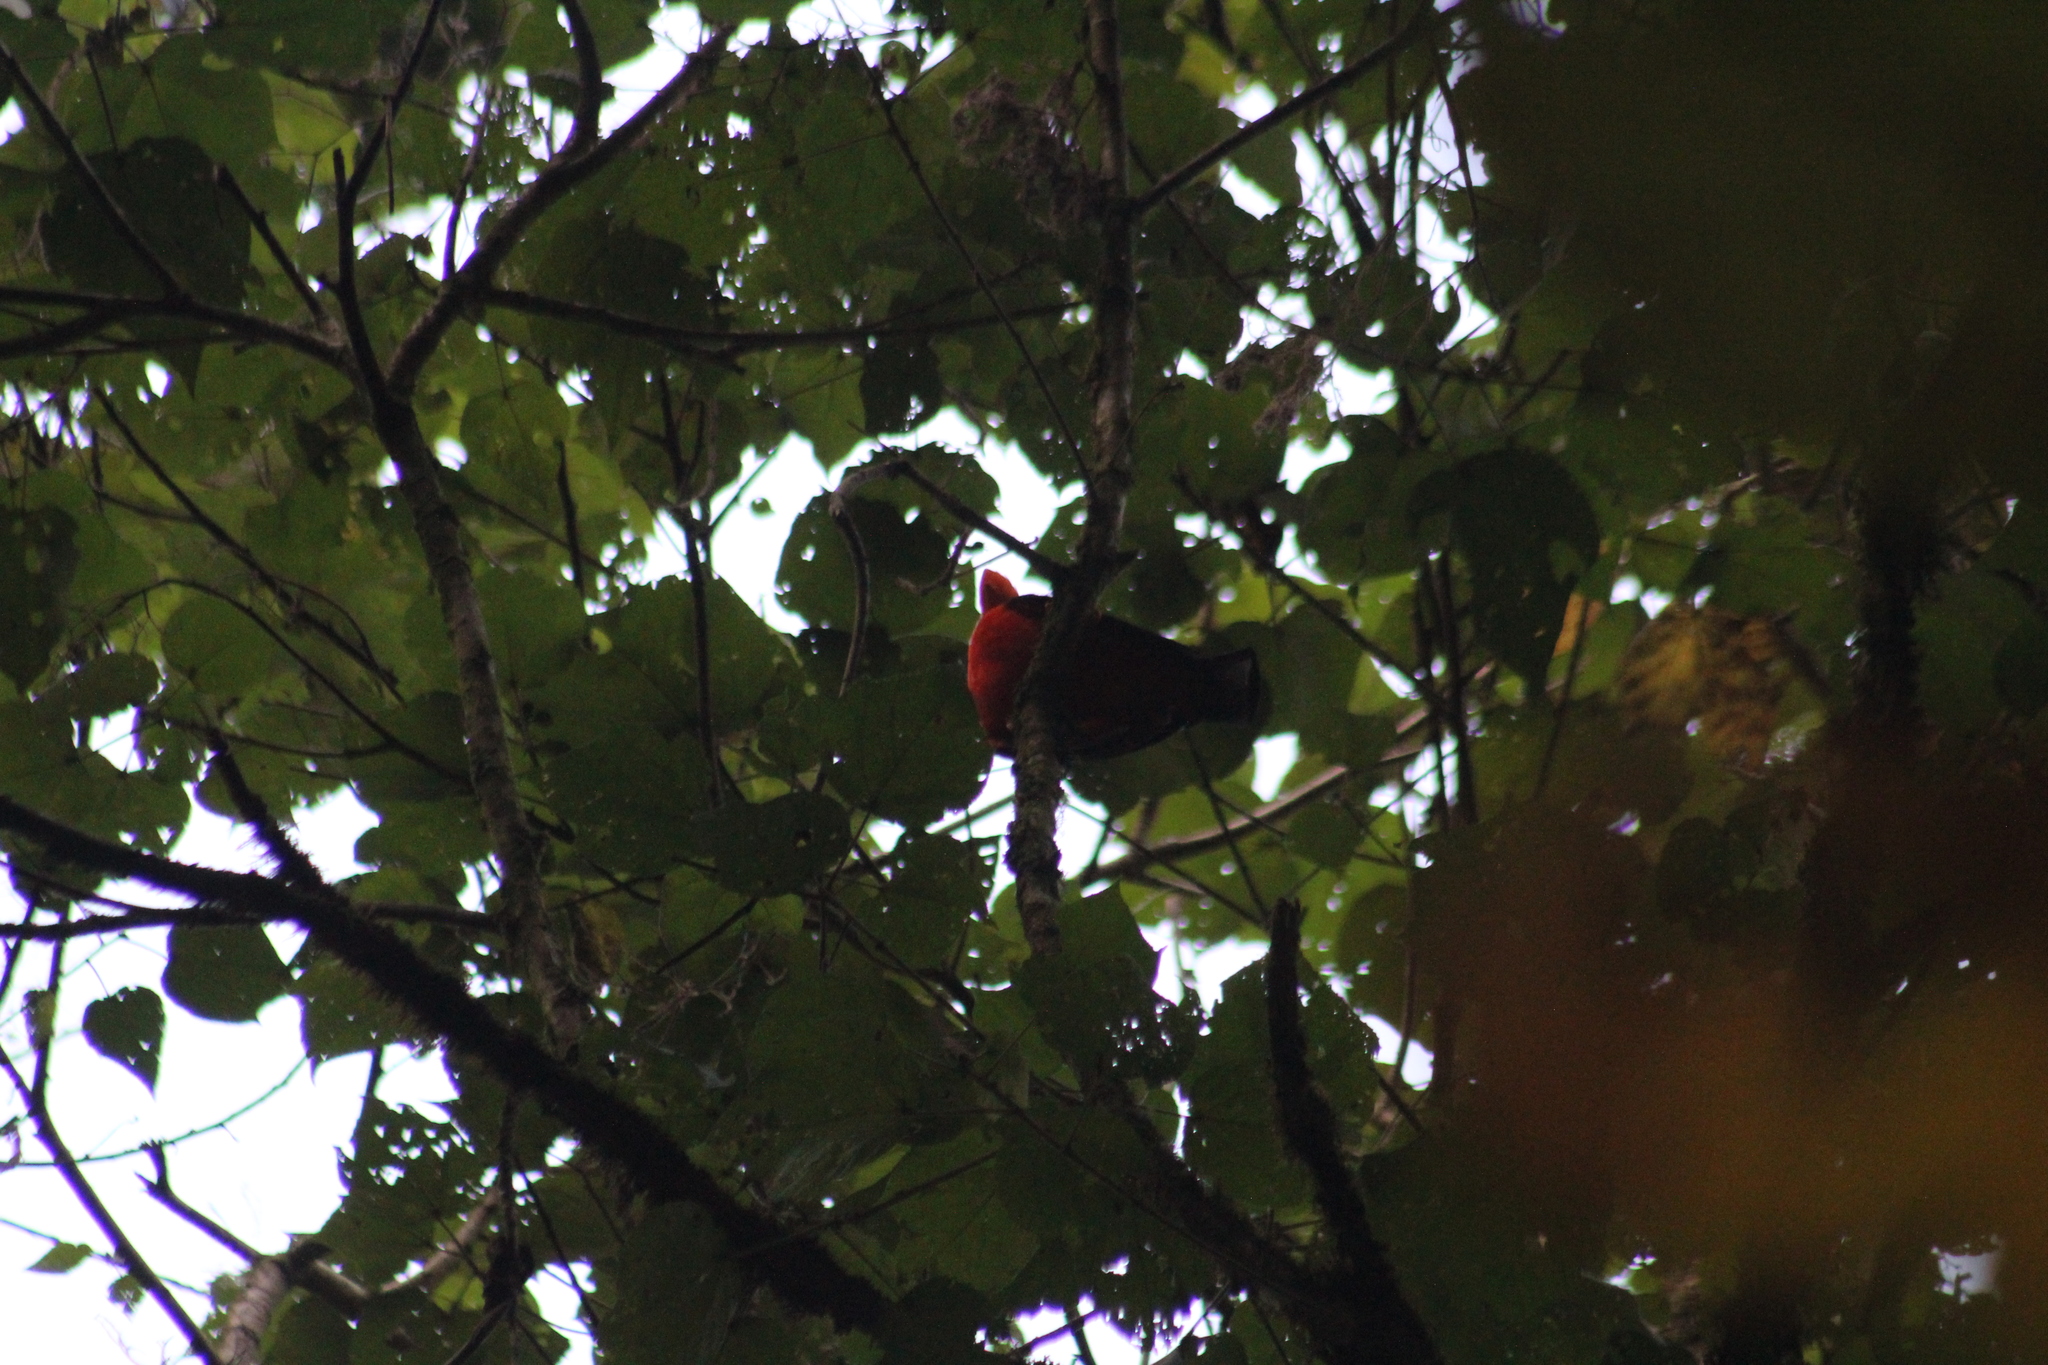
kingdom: Animalia
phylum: Chordata
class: Aves
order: Passeriformes
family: Cotingidae
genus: Rupicola
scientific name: Rupicola peruvianus
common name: Andean cock-of-the-rock
